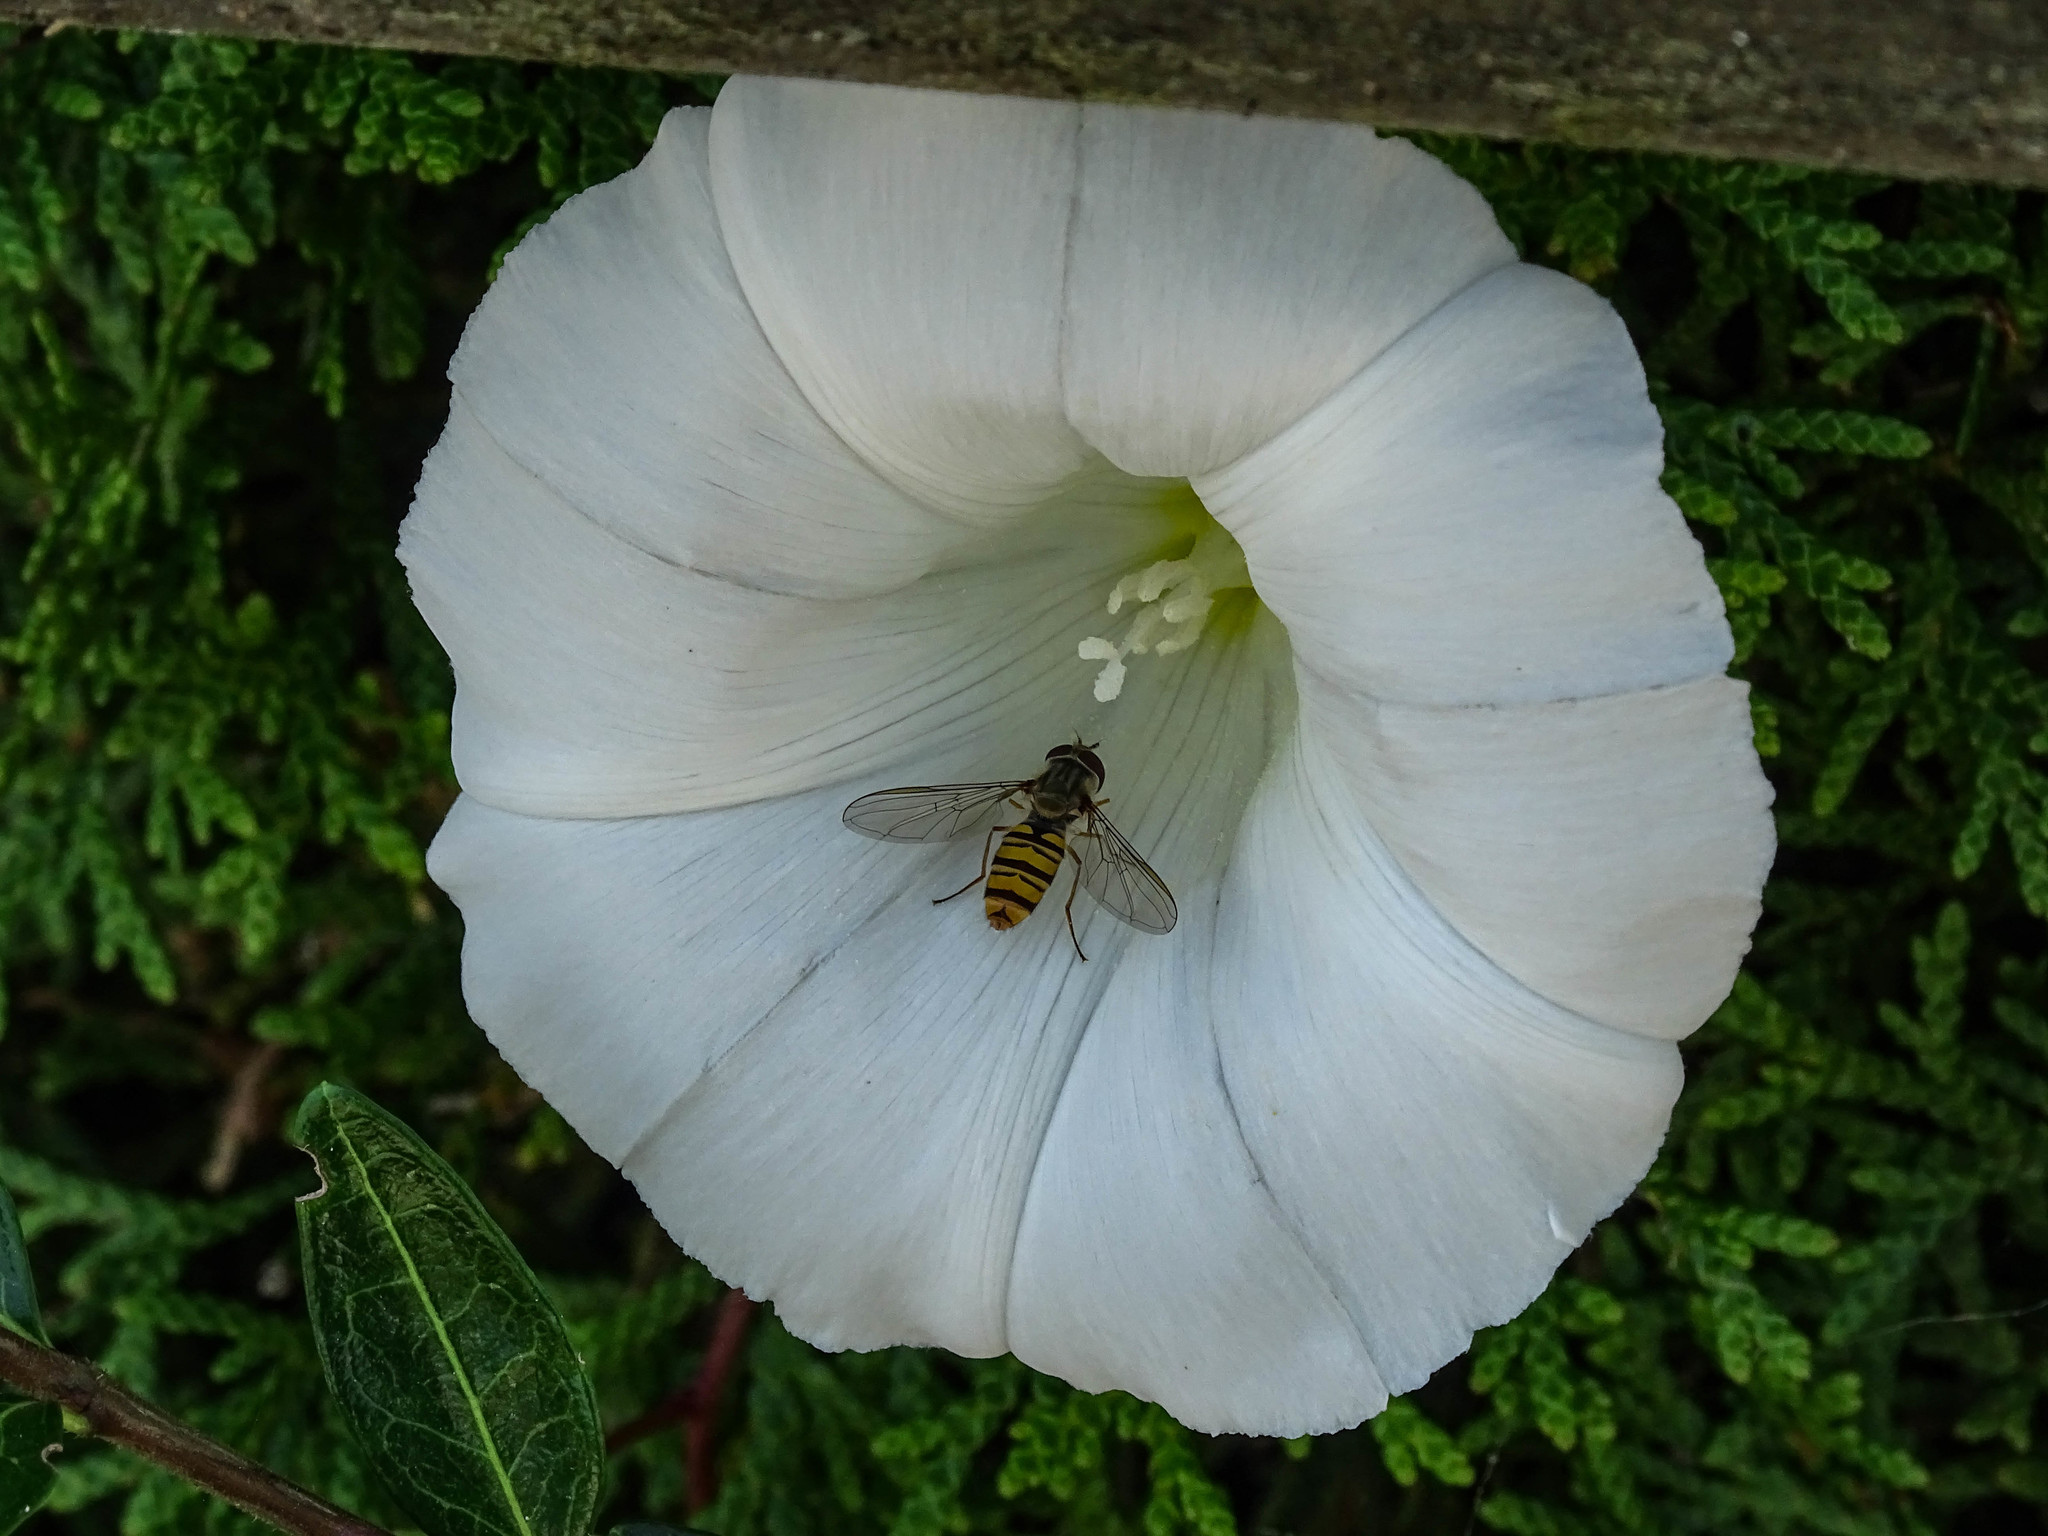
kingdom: Animalia
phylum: Arthropoda
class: Insecta
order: Diptera
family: Syrphidae
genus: Episyrphus
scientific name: Episyrphus balteatus
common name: Marmalade hoverfly
